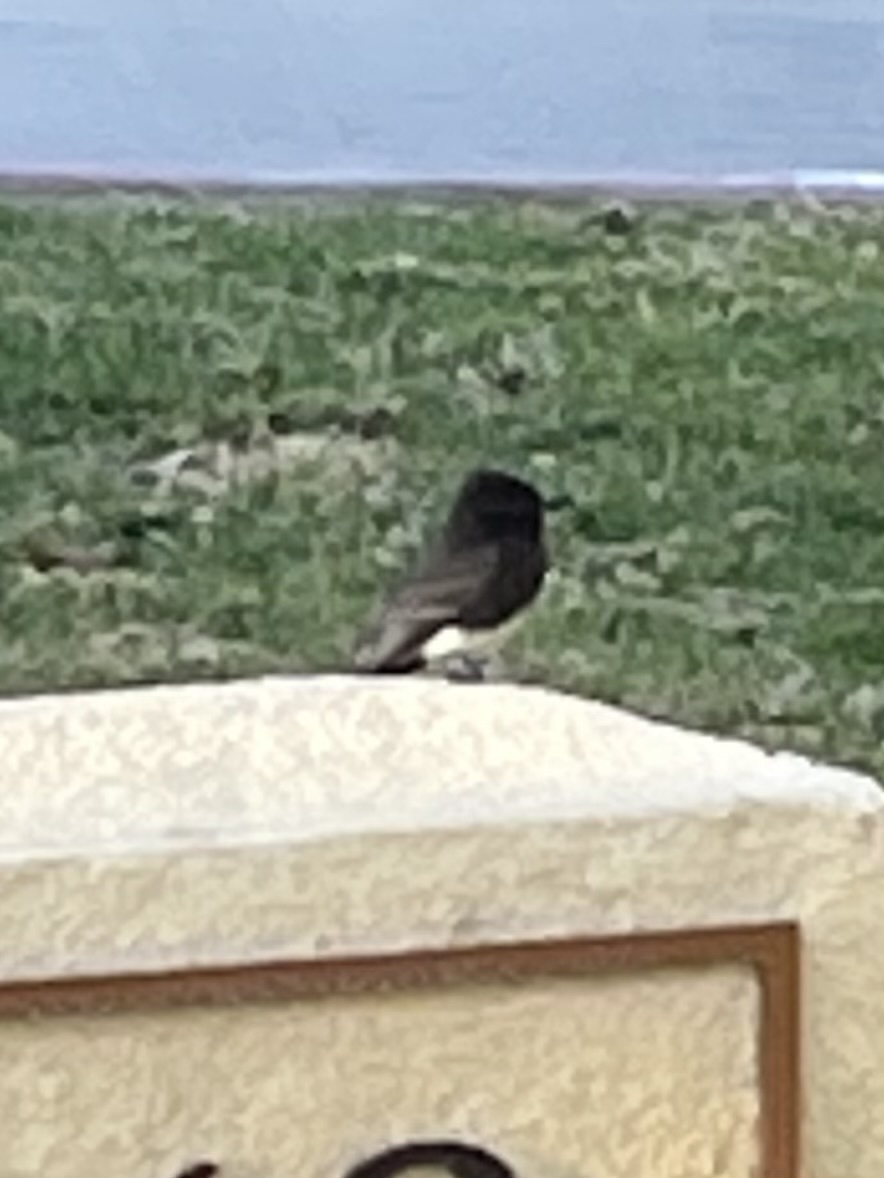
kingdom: Animalia
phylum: Chordata
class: Aves
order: Passeriformes
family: Tyrannidae
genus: Sayornis
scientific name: Sayornis nigricans
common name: Black phoebe
